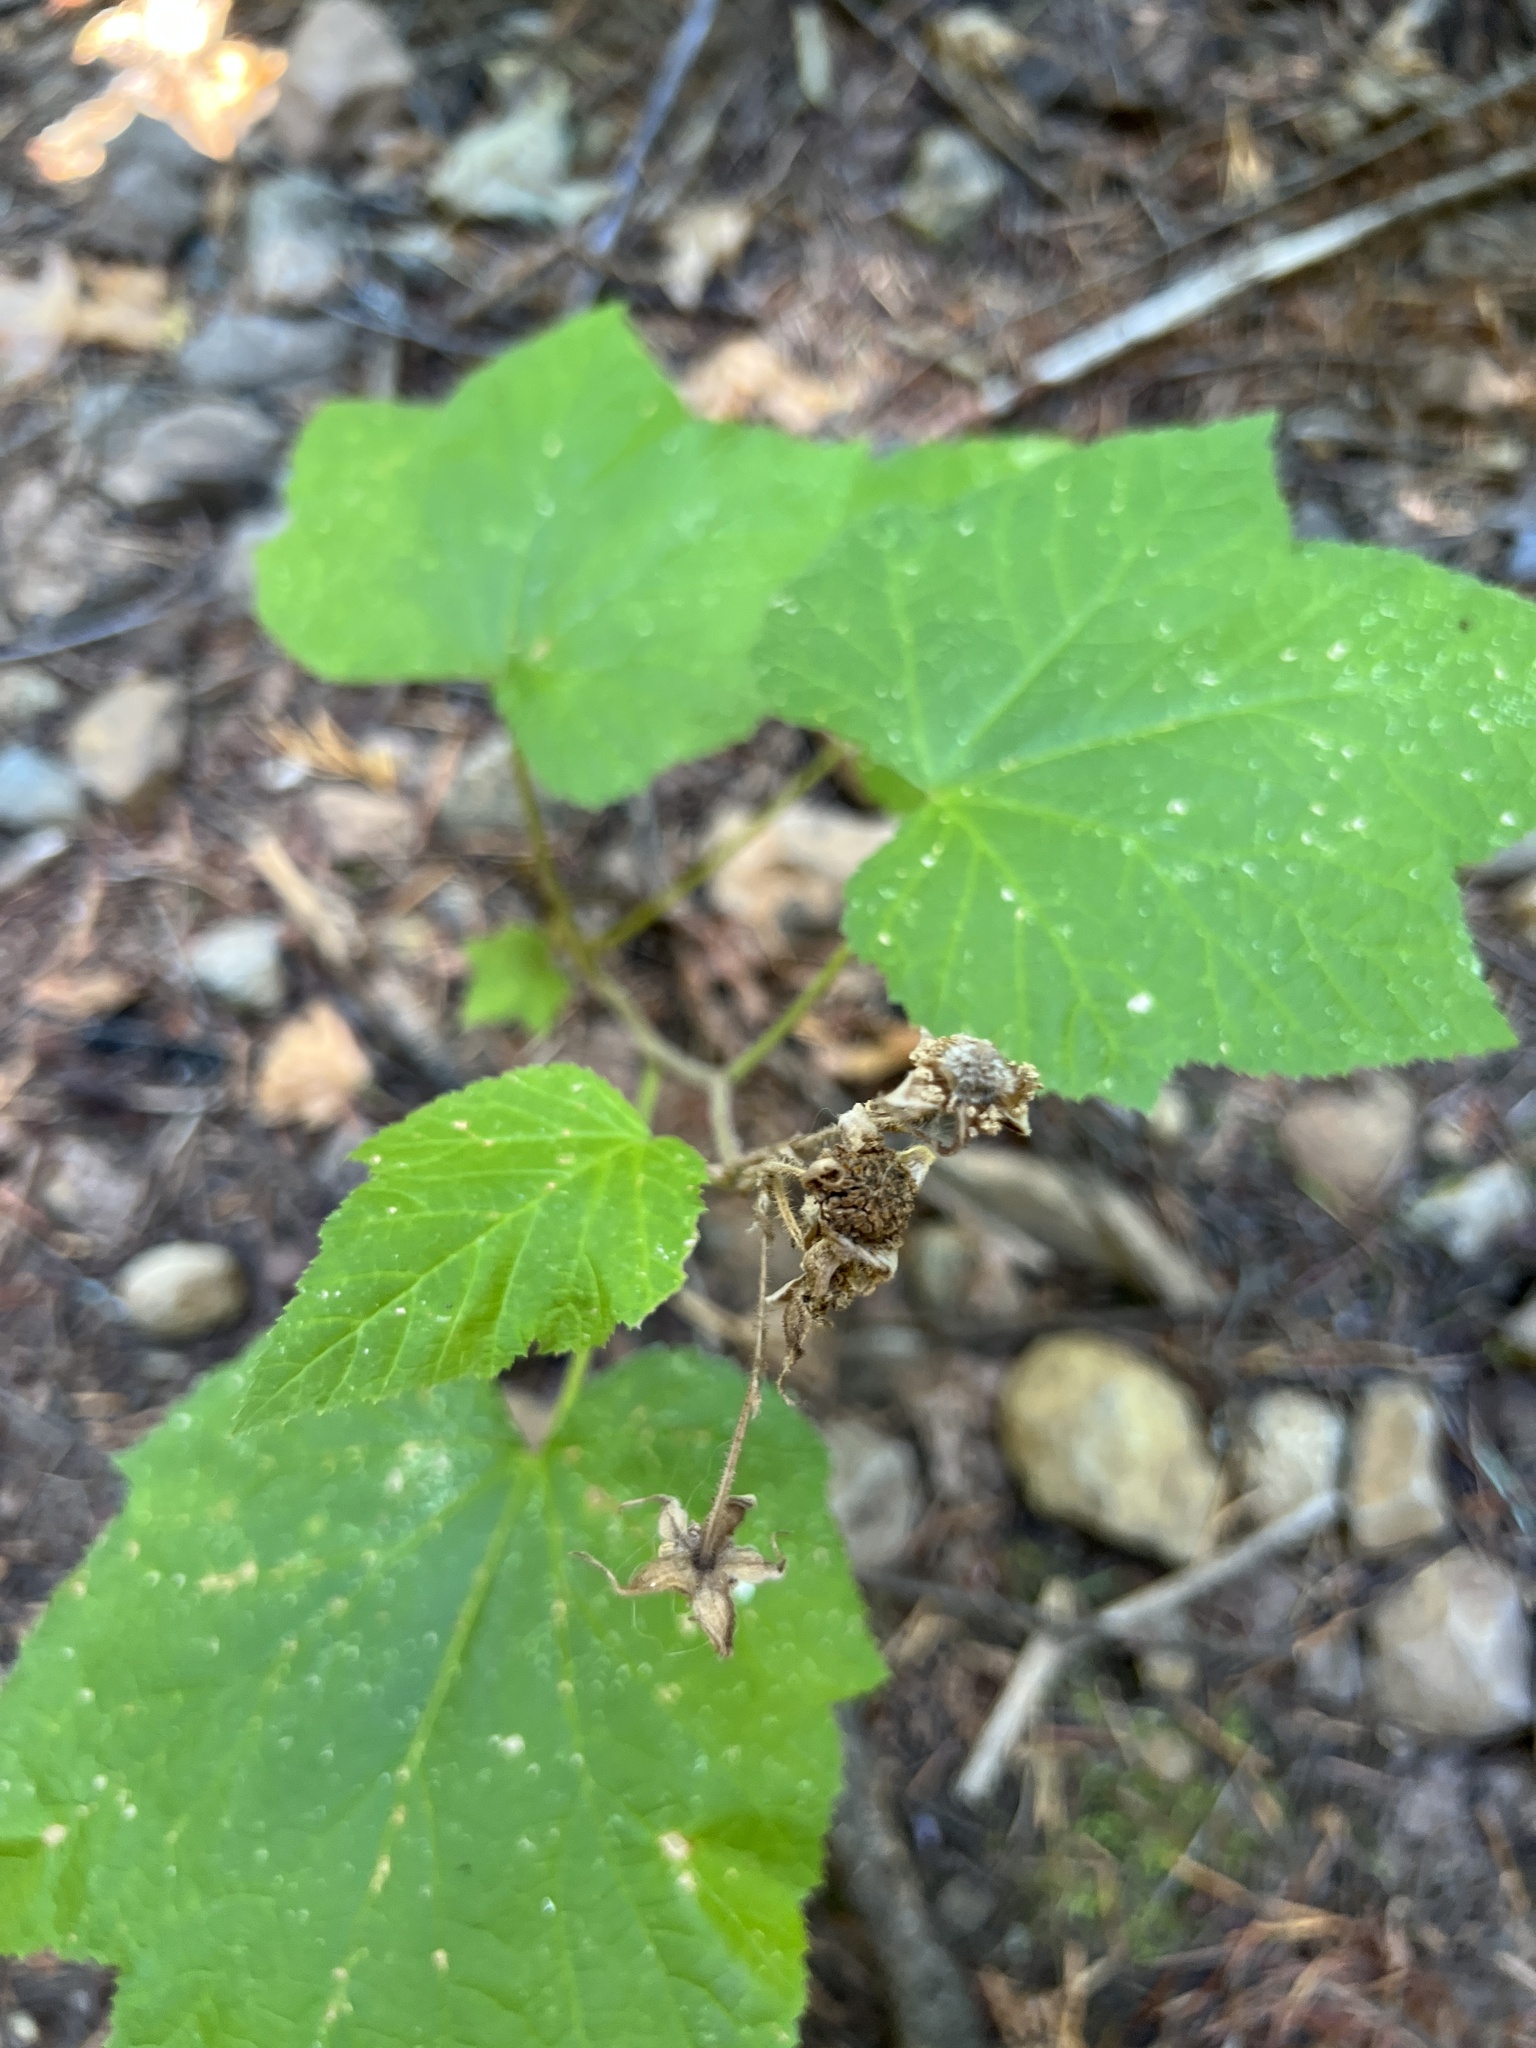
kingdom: Plantae
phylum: Tracheophyta
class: Magnoliopsida
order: Rosales
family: Rosaceae
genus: Rubus
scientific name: Rubus parviflorus
